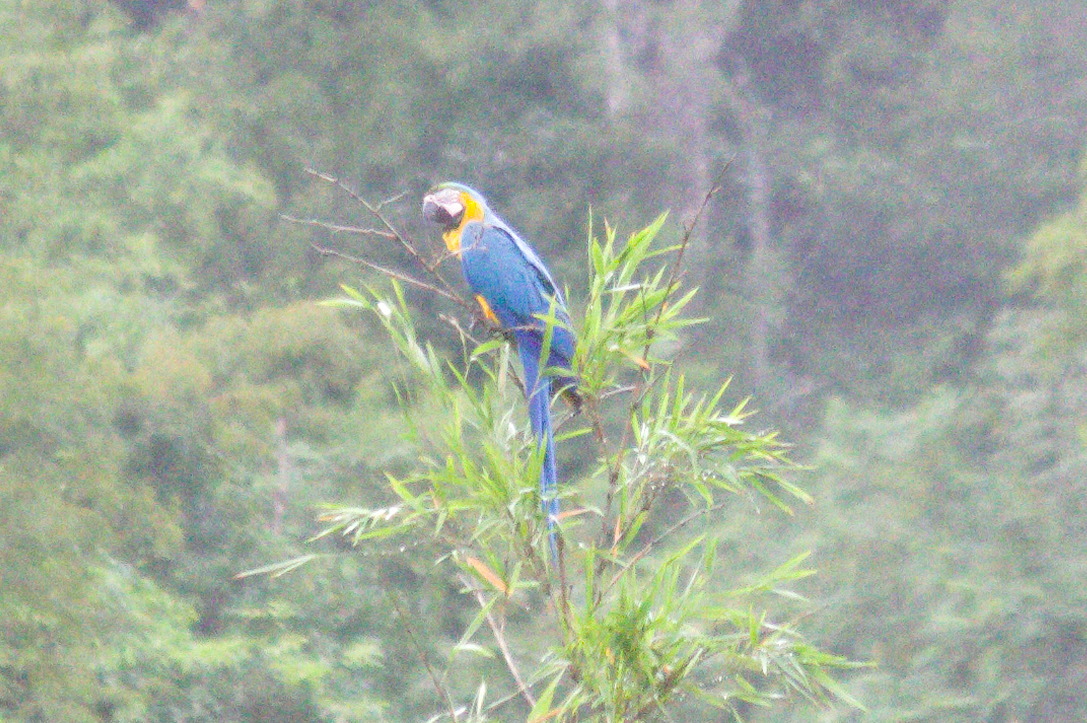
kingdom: Animalia
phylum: Chordata
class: Aves
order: Psittaciformes
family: Psittacidae
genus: Ara
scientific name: Ara ararauna
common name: Blue-and-yellow macaw
